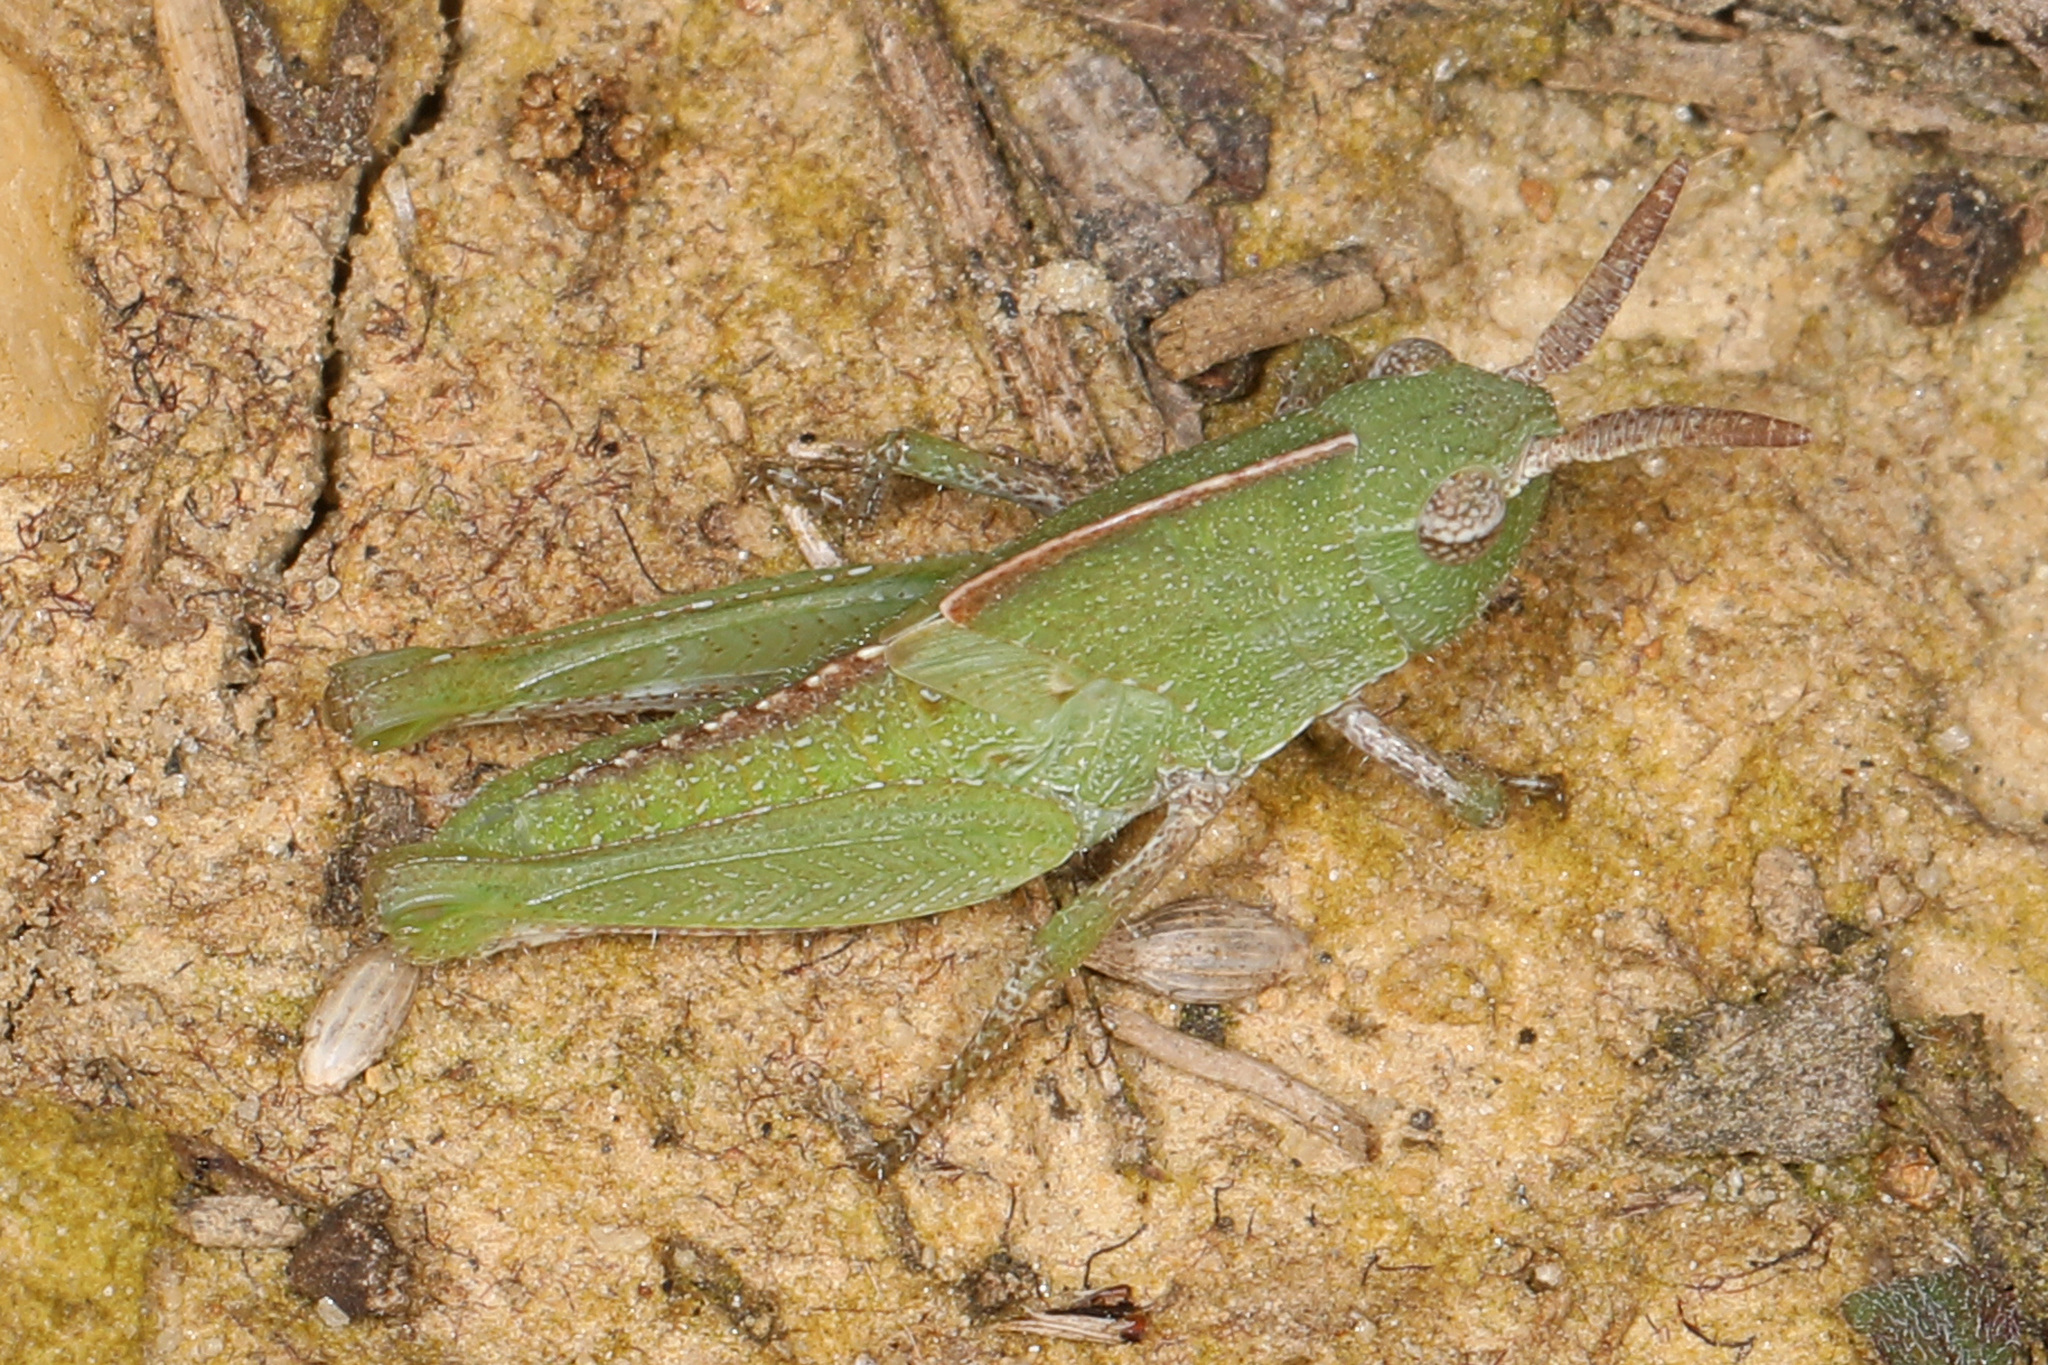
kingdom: Animalia
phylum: Arthropoda
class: Insecta
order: Orthoptera
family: Acrididae
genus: Chortophaga
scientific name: Chortophaga viridifasciata
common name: Green-striped grasshopper
